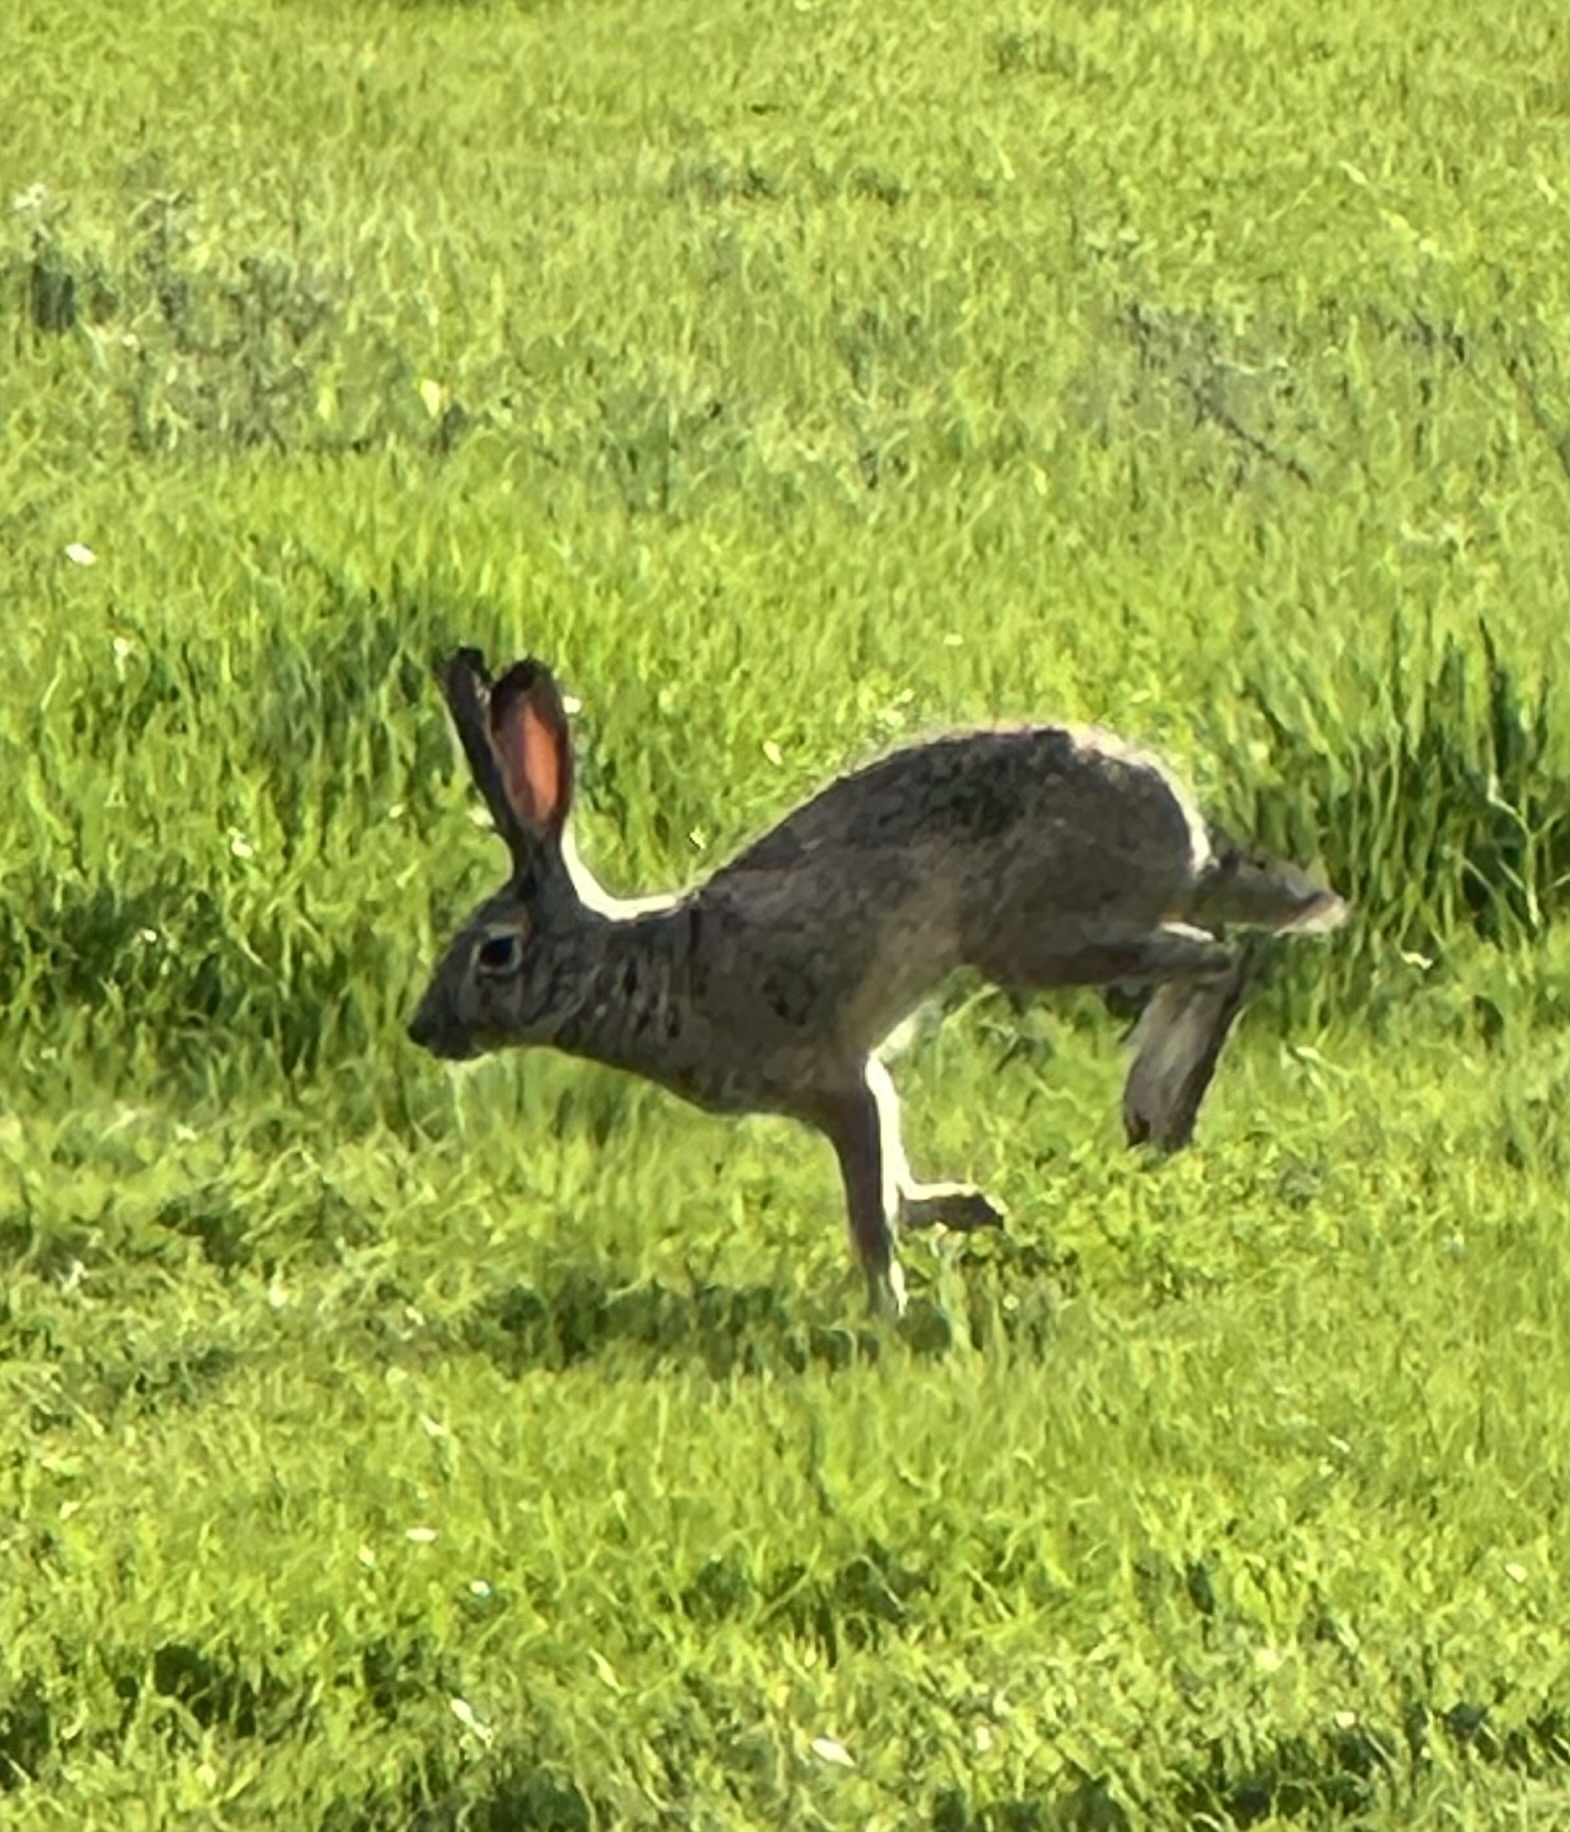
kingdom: Animalia
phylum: Chordata
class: Mammalia
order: Lagomorpha
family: Leporidae
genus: Lepus
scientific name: Lepus californicus
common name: Black-tailed jackrabbit
